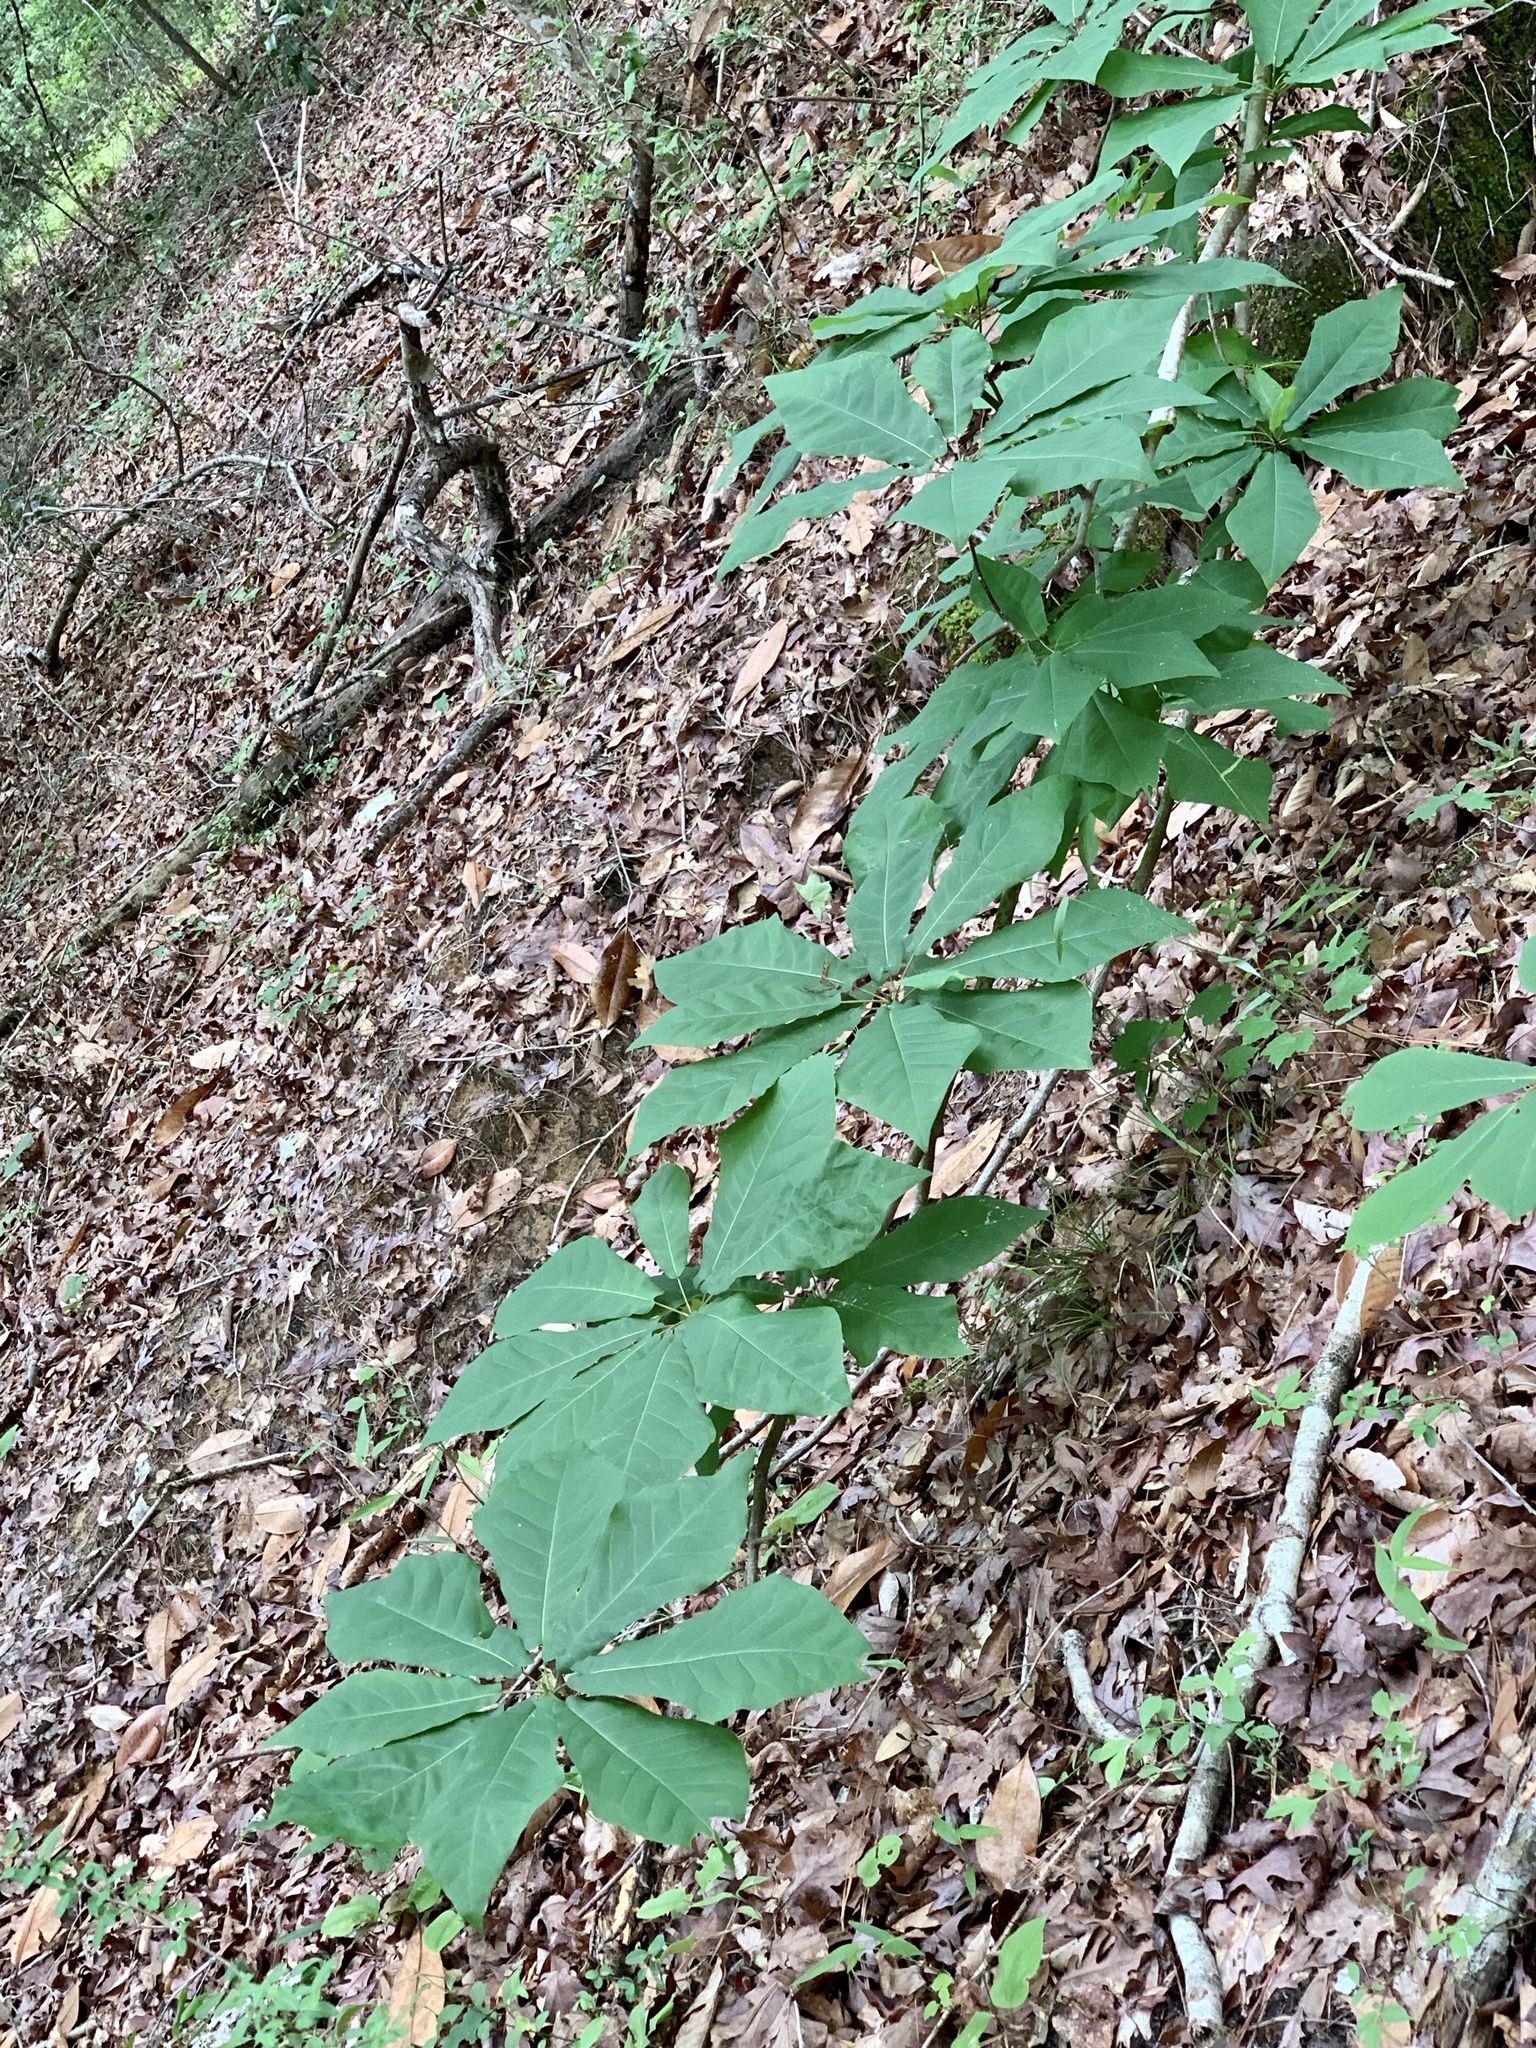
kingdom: Plantae
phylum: Tracheophyta
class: Magnoliopsida
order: Magnoliales
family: Magnoliaceae
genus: Magnolia
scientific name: Magnolia fraseri
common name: Fraser's magnolia
